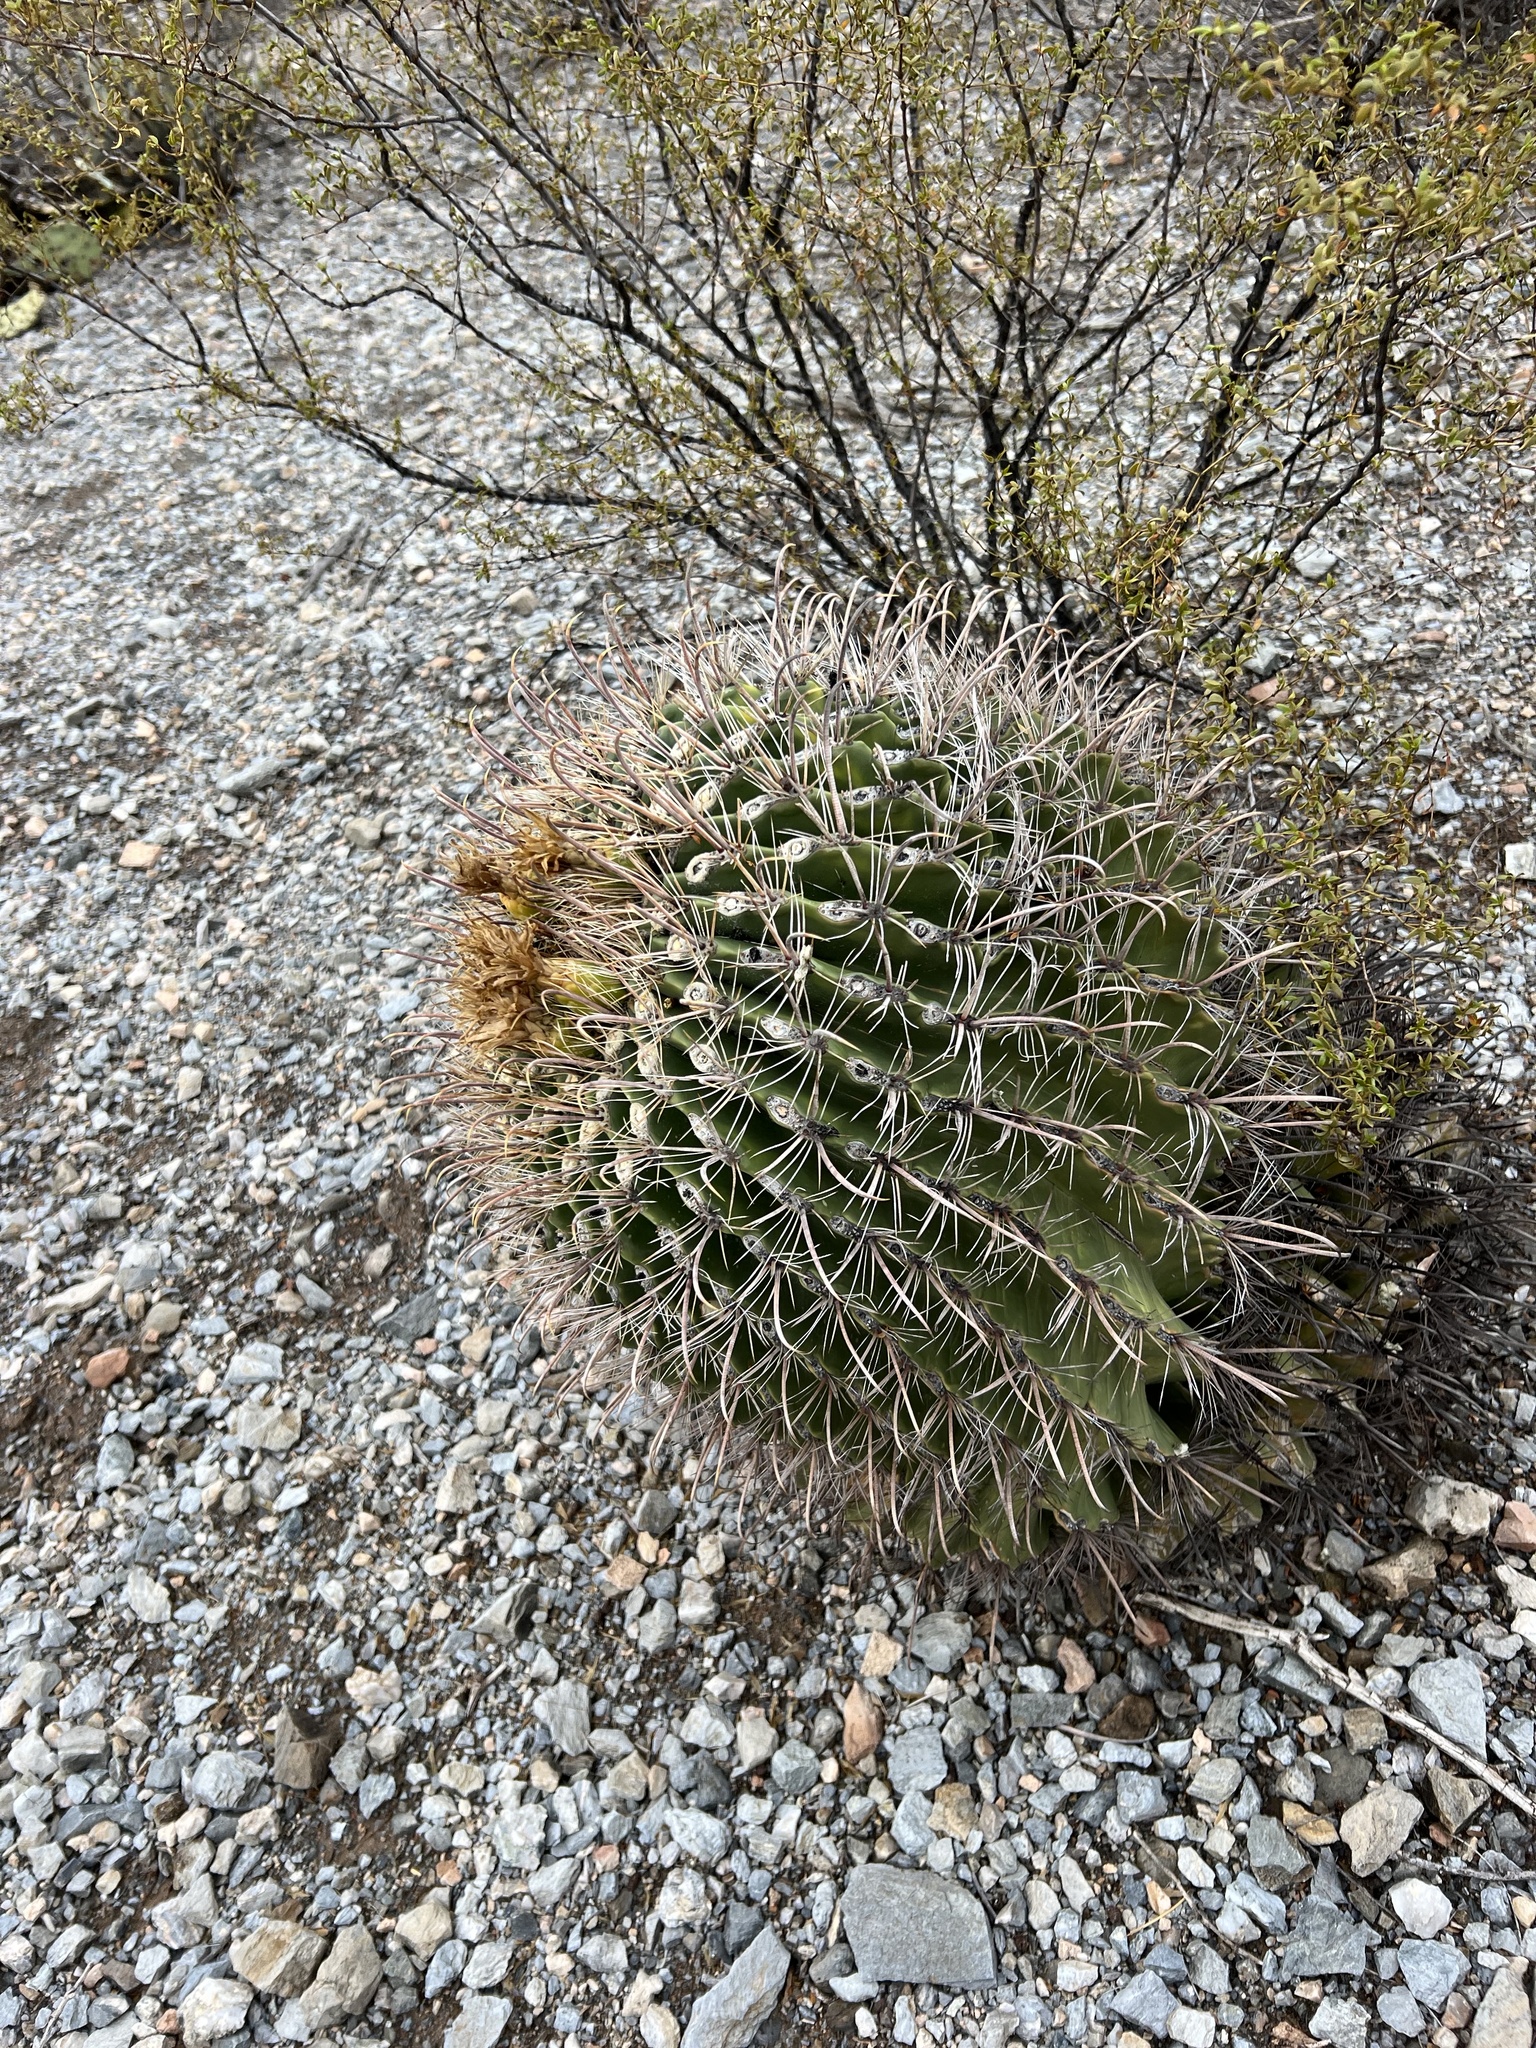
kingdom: Plantae
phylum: Tracheophyta
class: Magnoliopsida
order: Caryophyllales
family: Cactaceae
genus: Ferocactus
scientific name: Ferocactus wislizeni
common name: Candy barrel cactus
